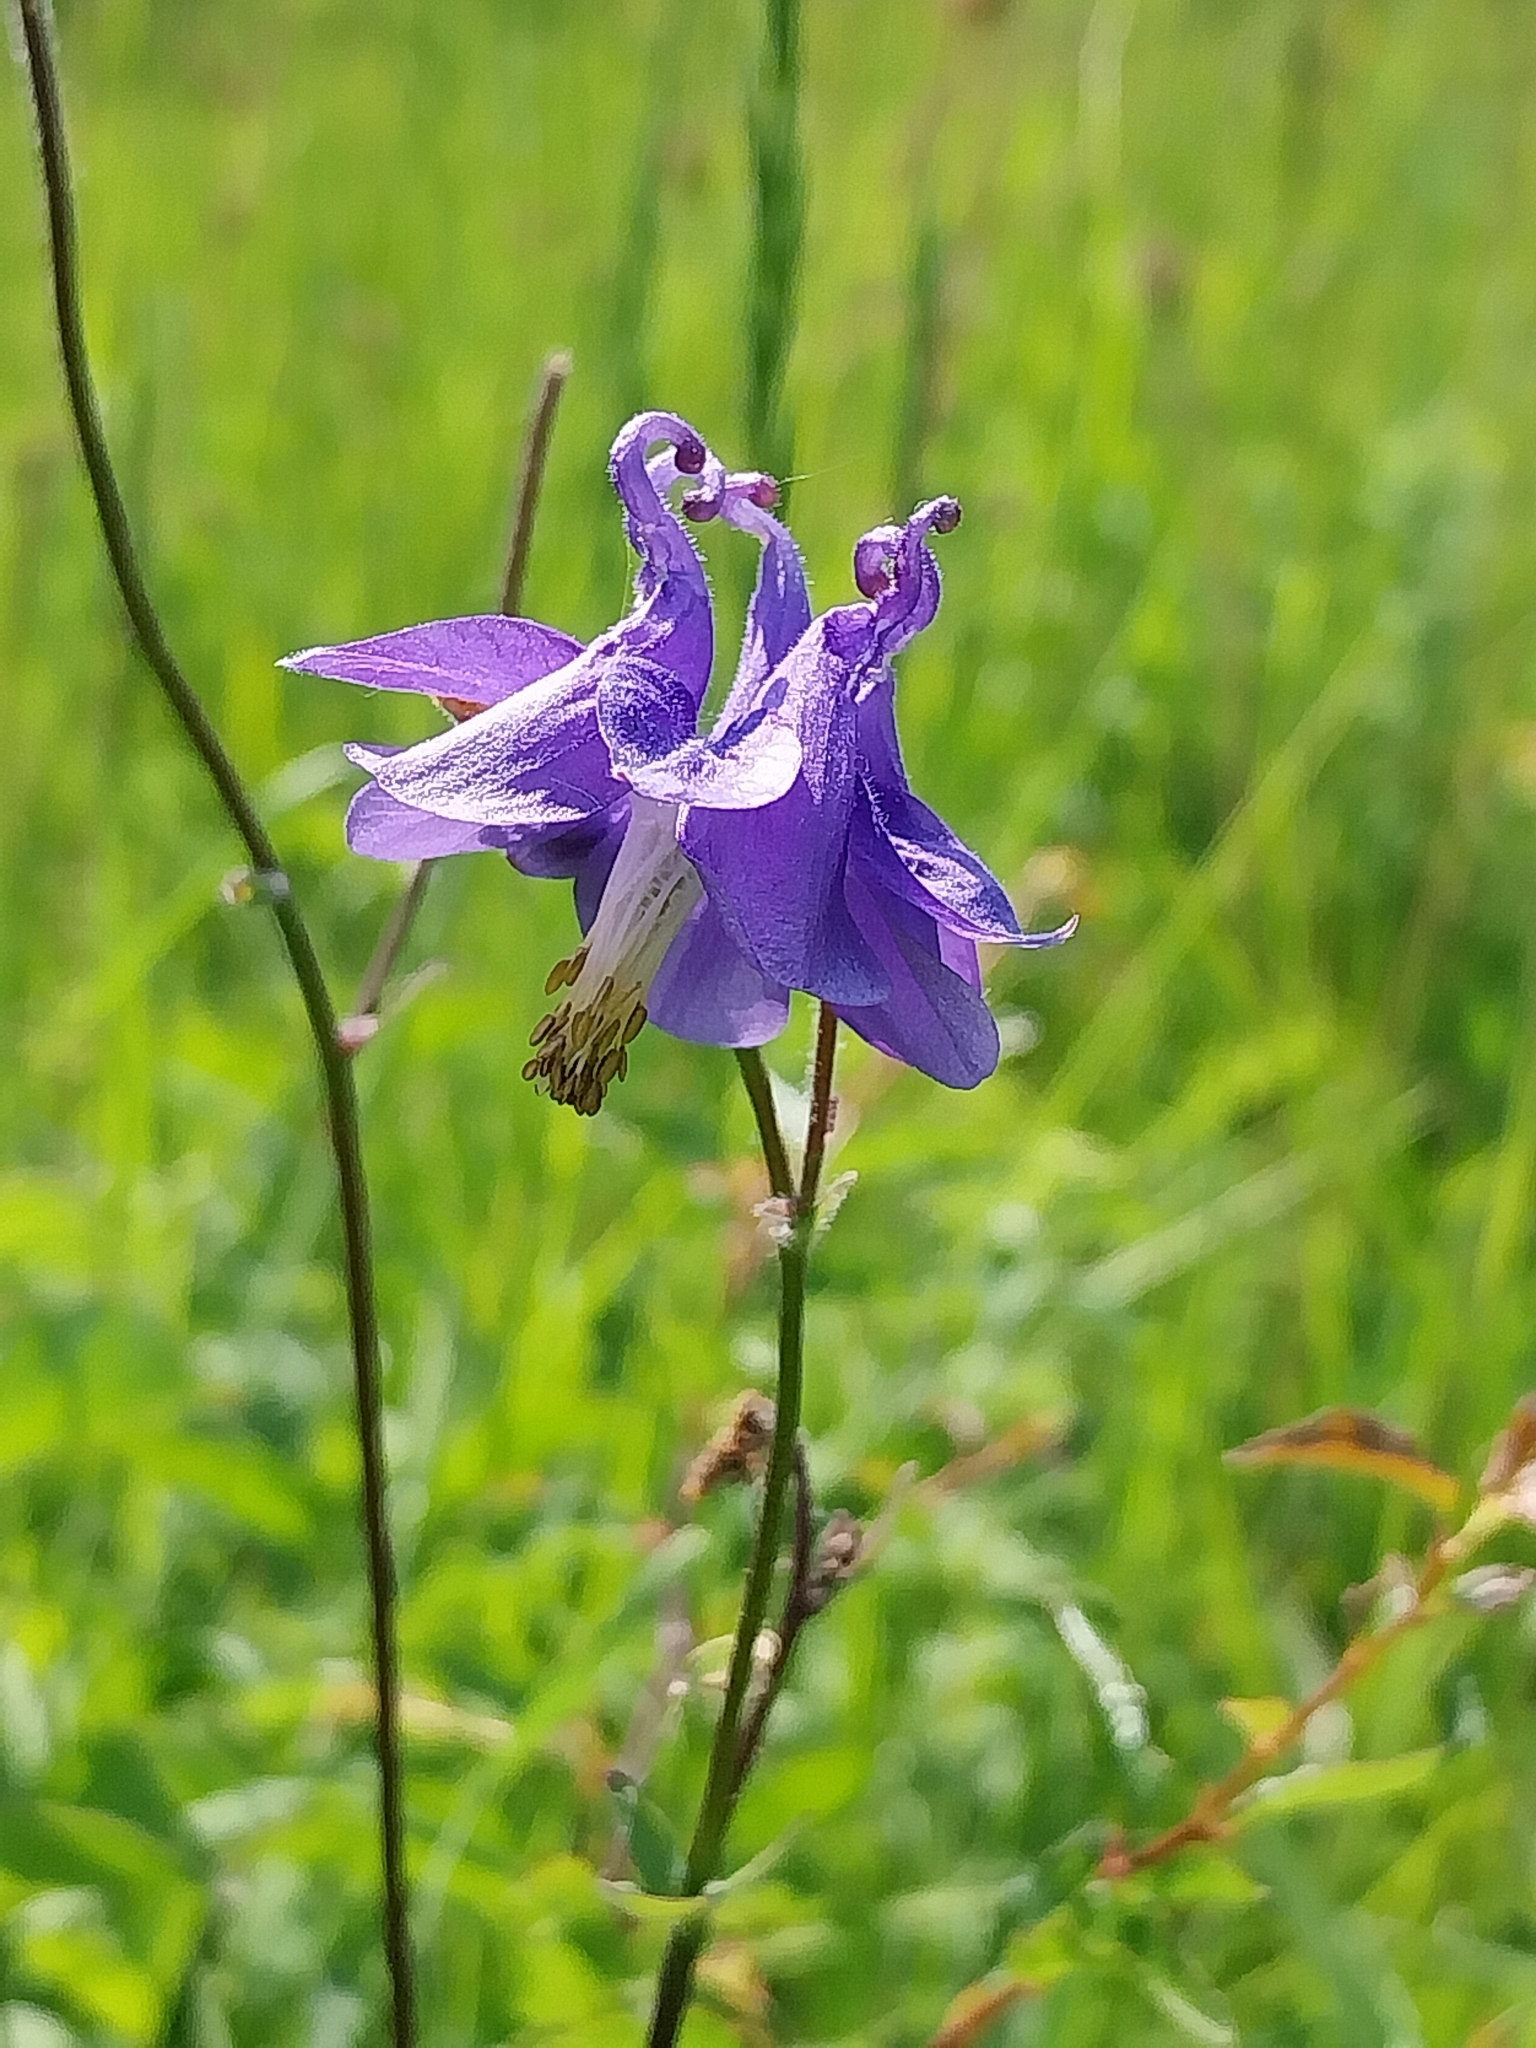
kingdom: Plantae
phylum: Tracheophyta
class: Magnoliopsida
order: Ranunculales
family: Ranunculaceae
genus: Aquilegia
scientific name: Aquilegia vulgaris
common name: Columbine
